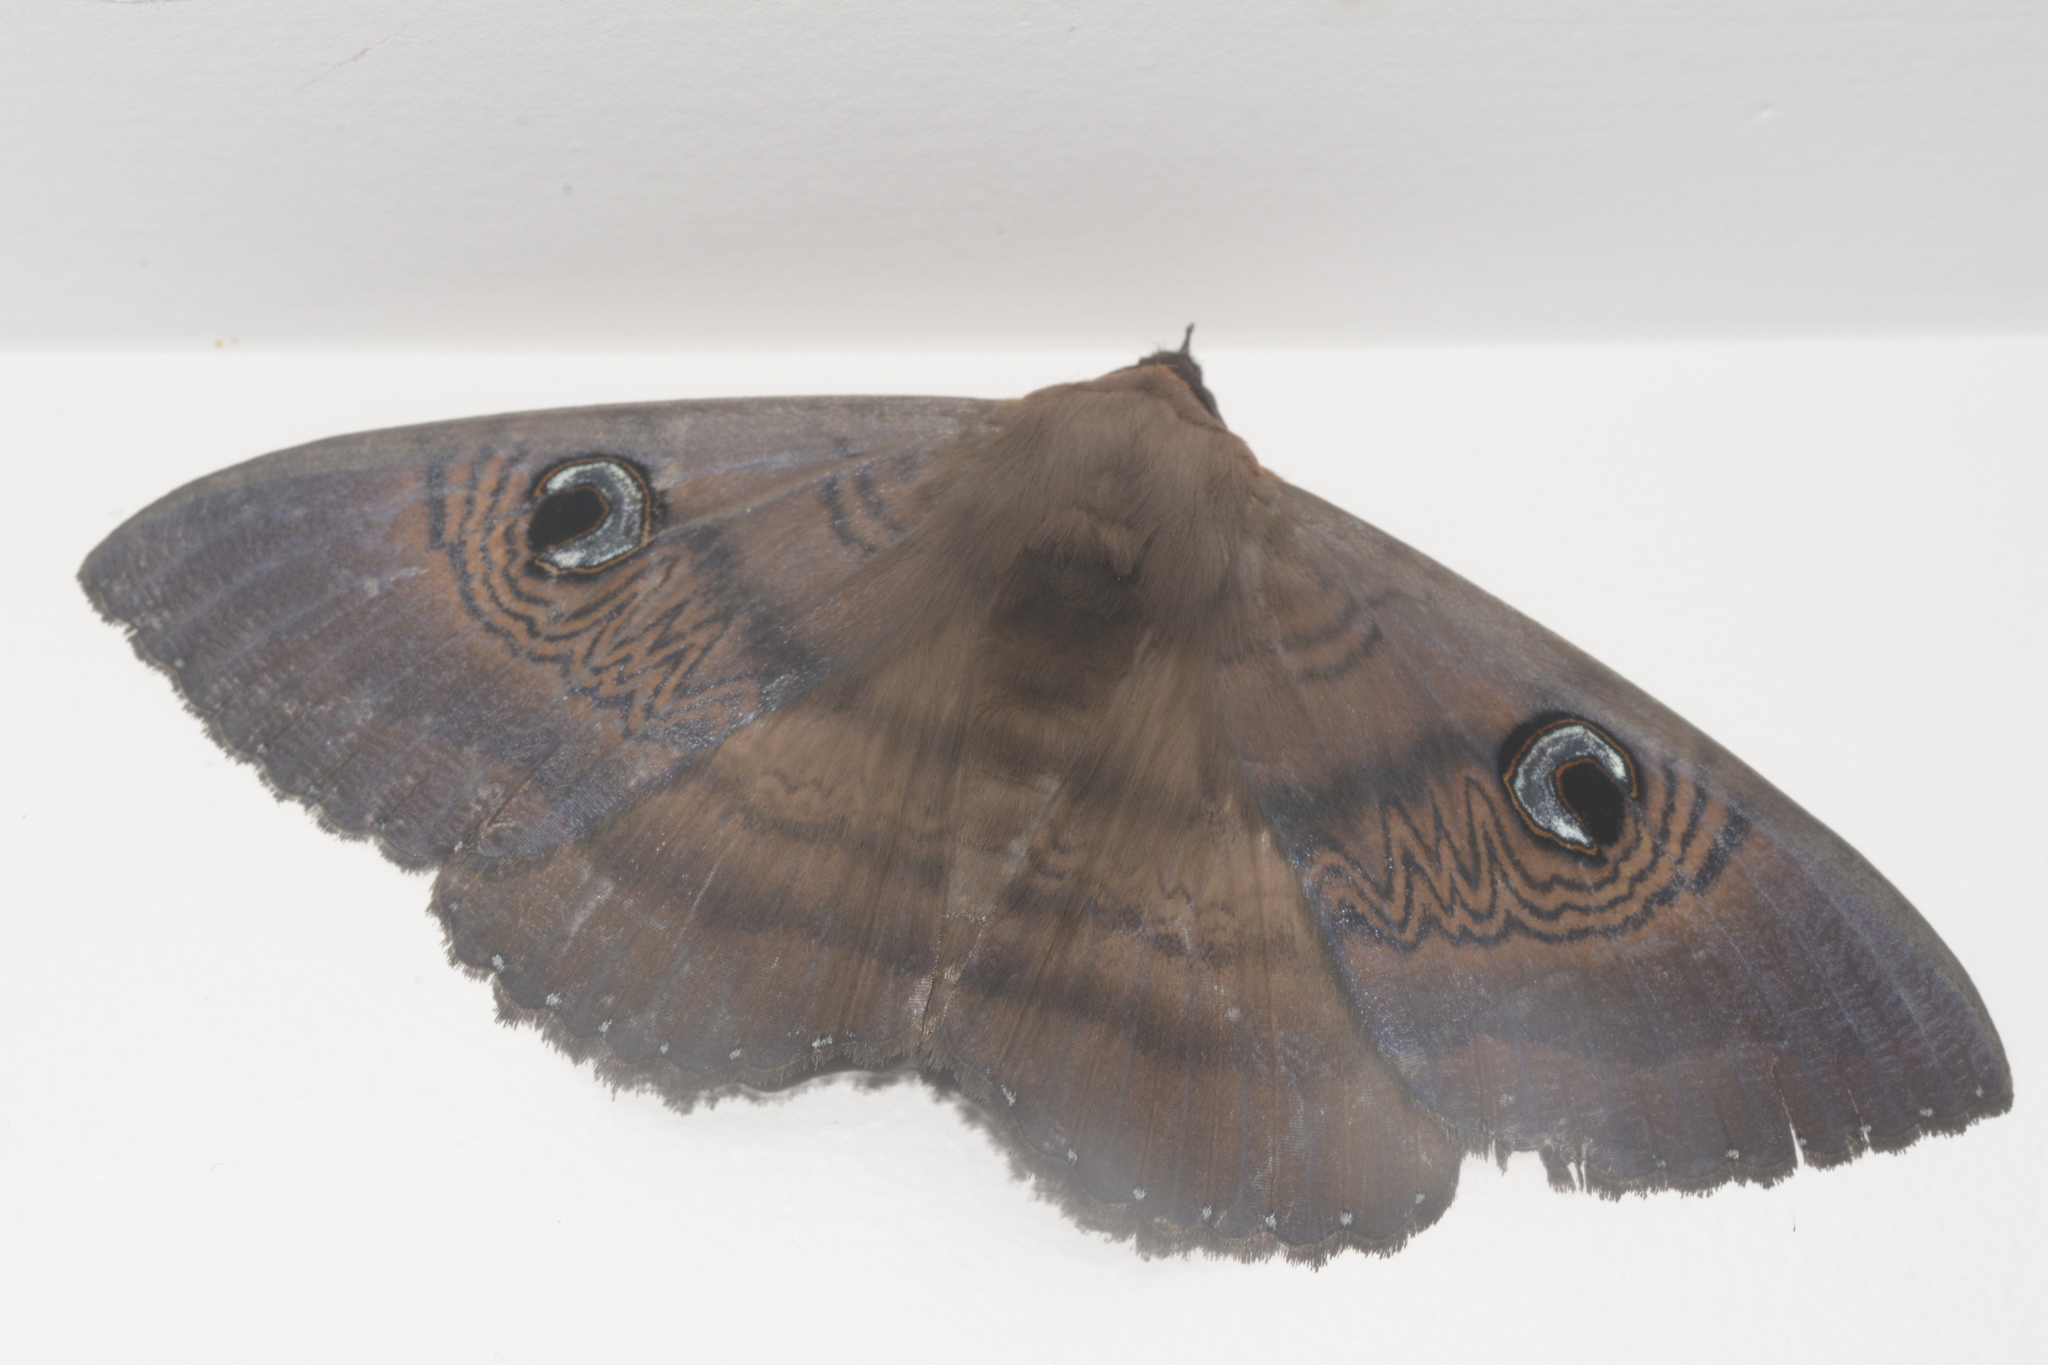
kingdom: Animalia
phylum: Arthropoda
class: Insecta
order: Lepidoptera
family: Erebidae
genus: Dasypodia
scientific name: Dasypodia selenophora
